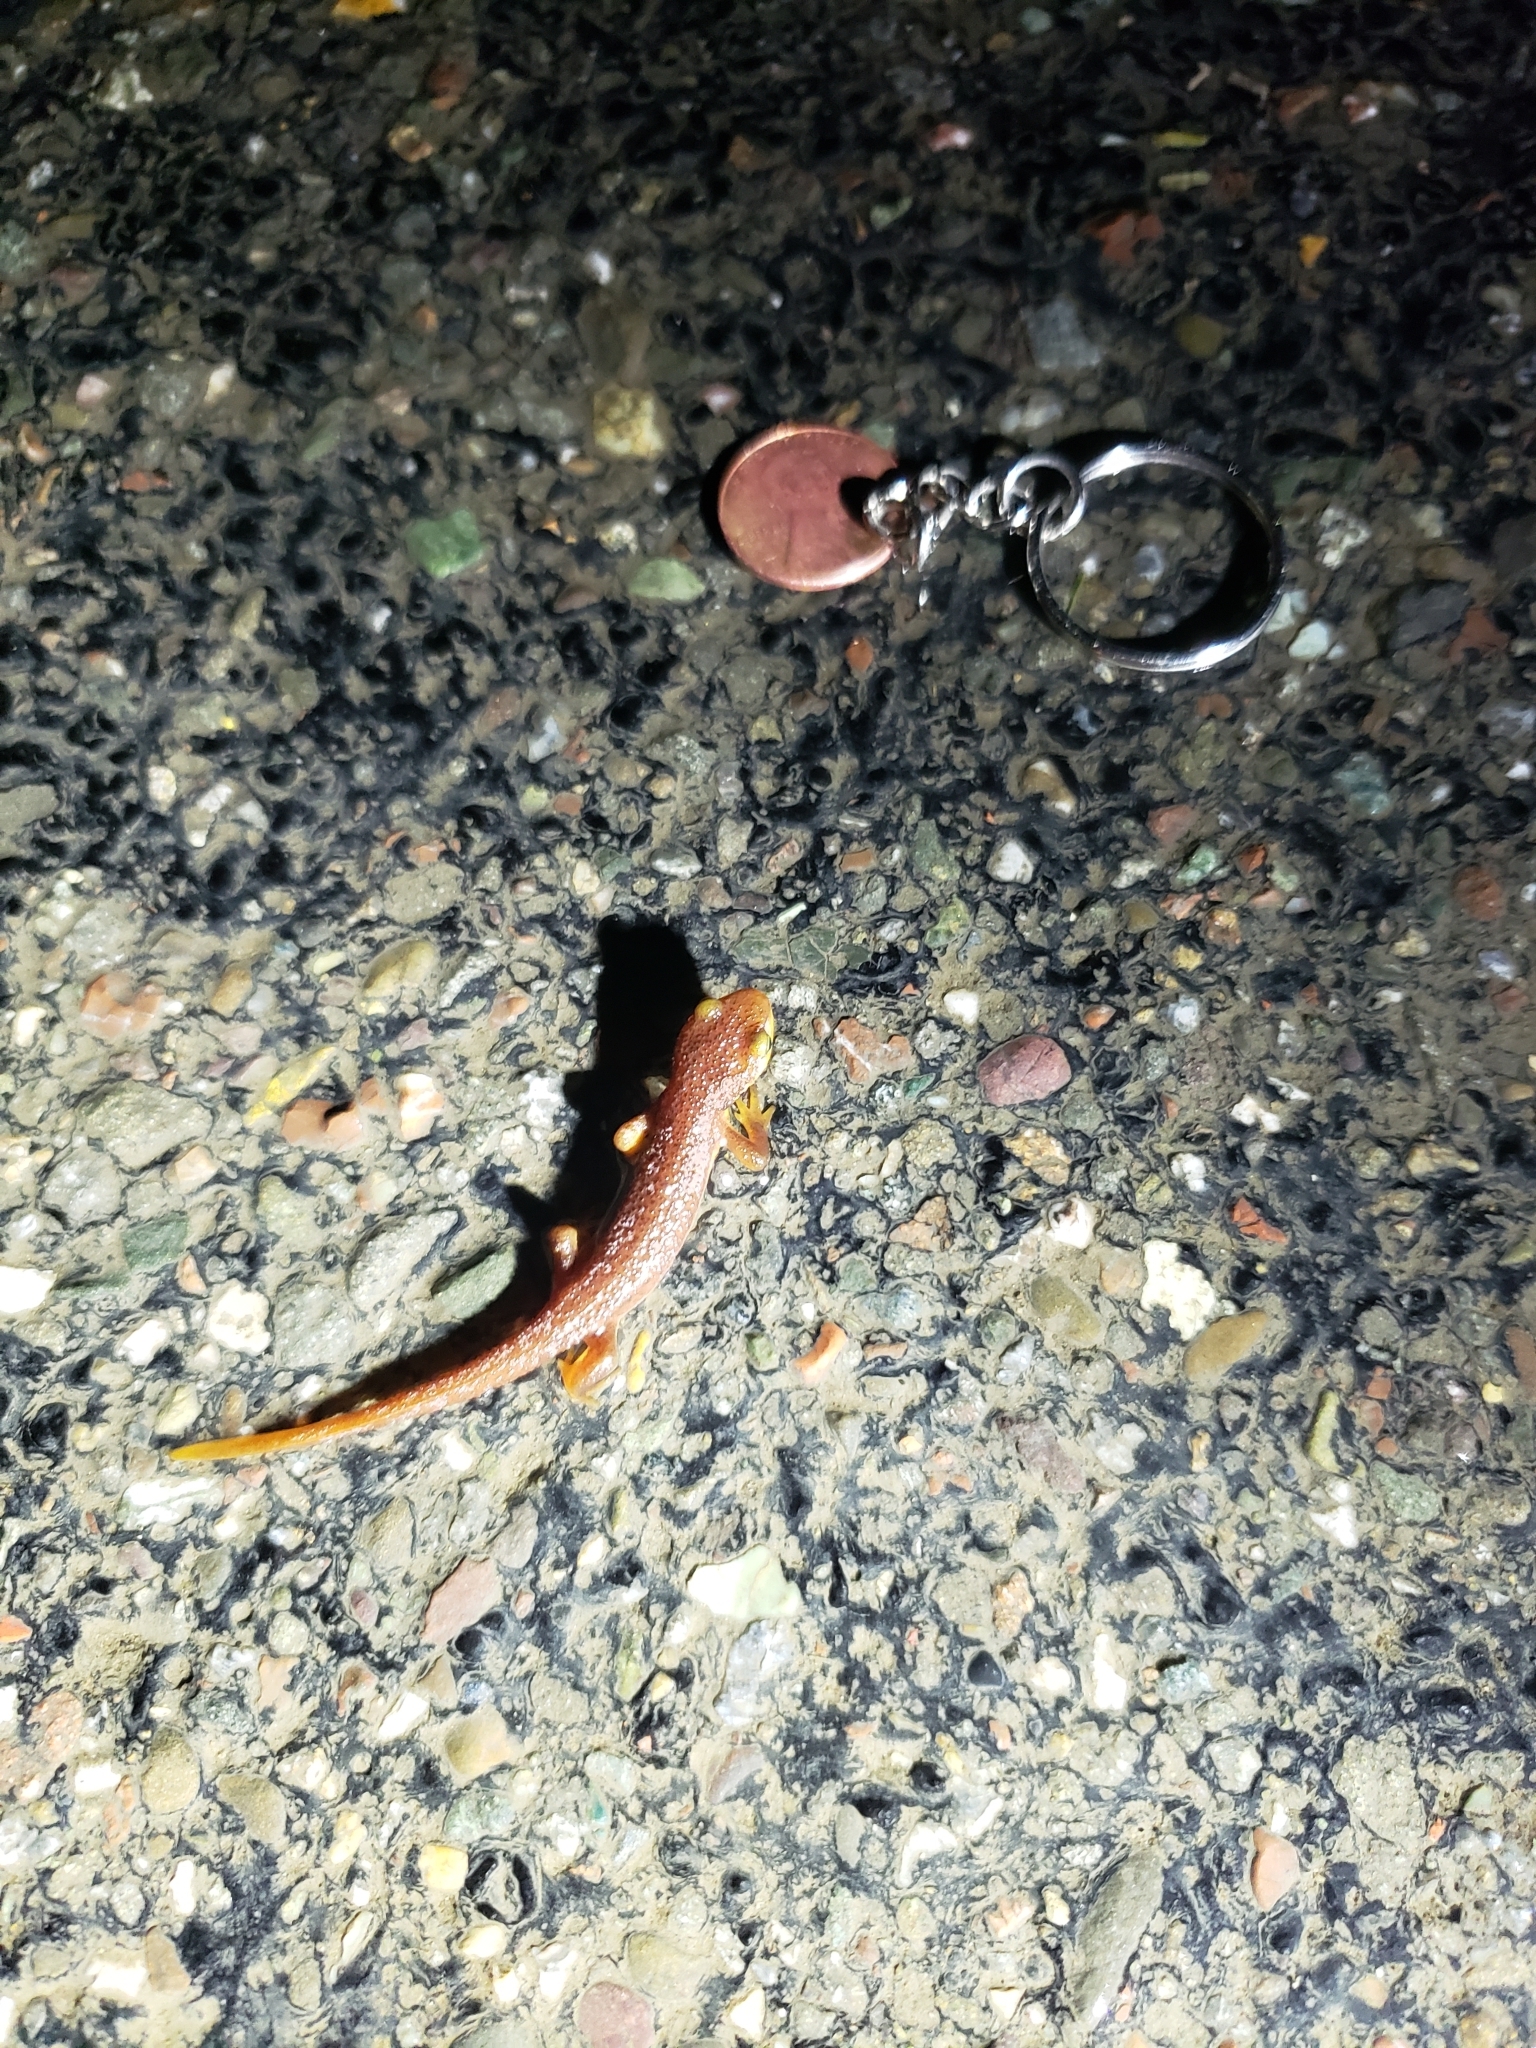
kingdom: Animalia
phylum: Chordata
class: Amphibia
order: Caudata
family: Salamandridae
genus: Taricha
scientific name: Taricha torosa
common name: California newt
